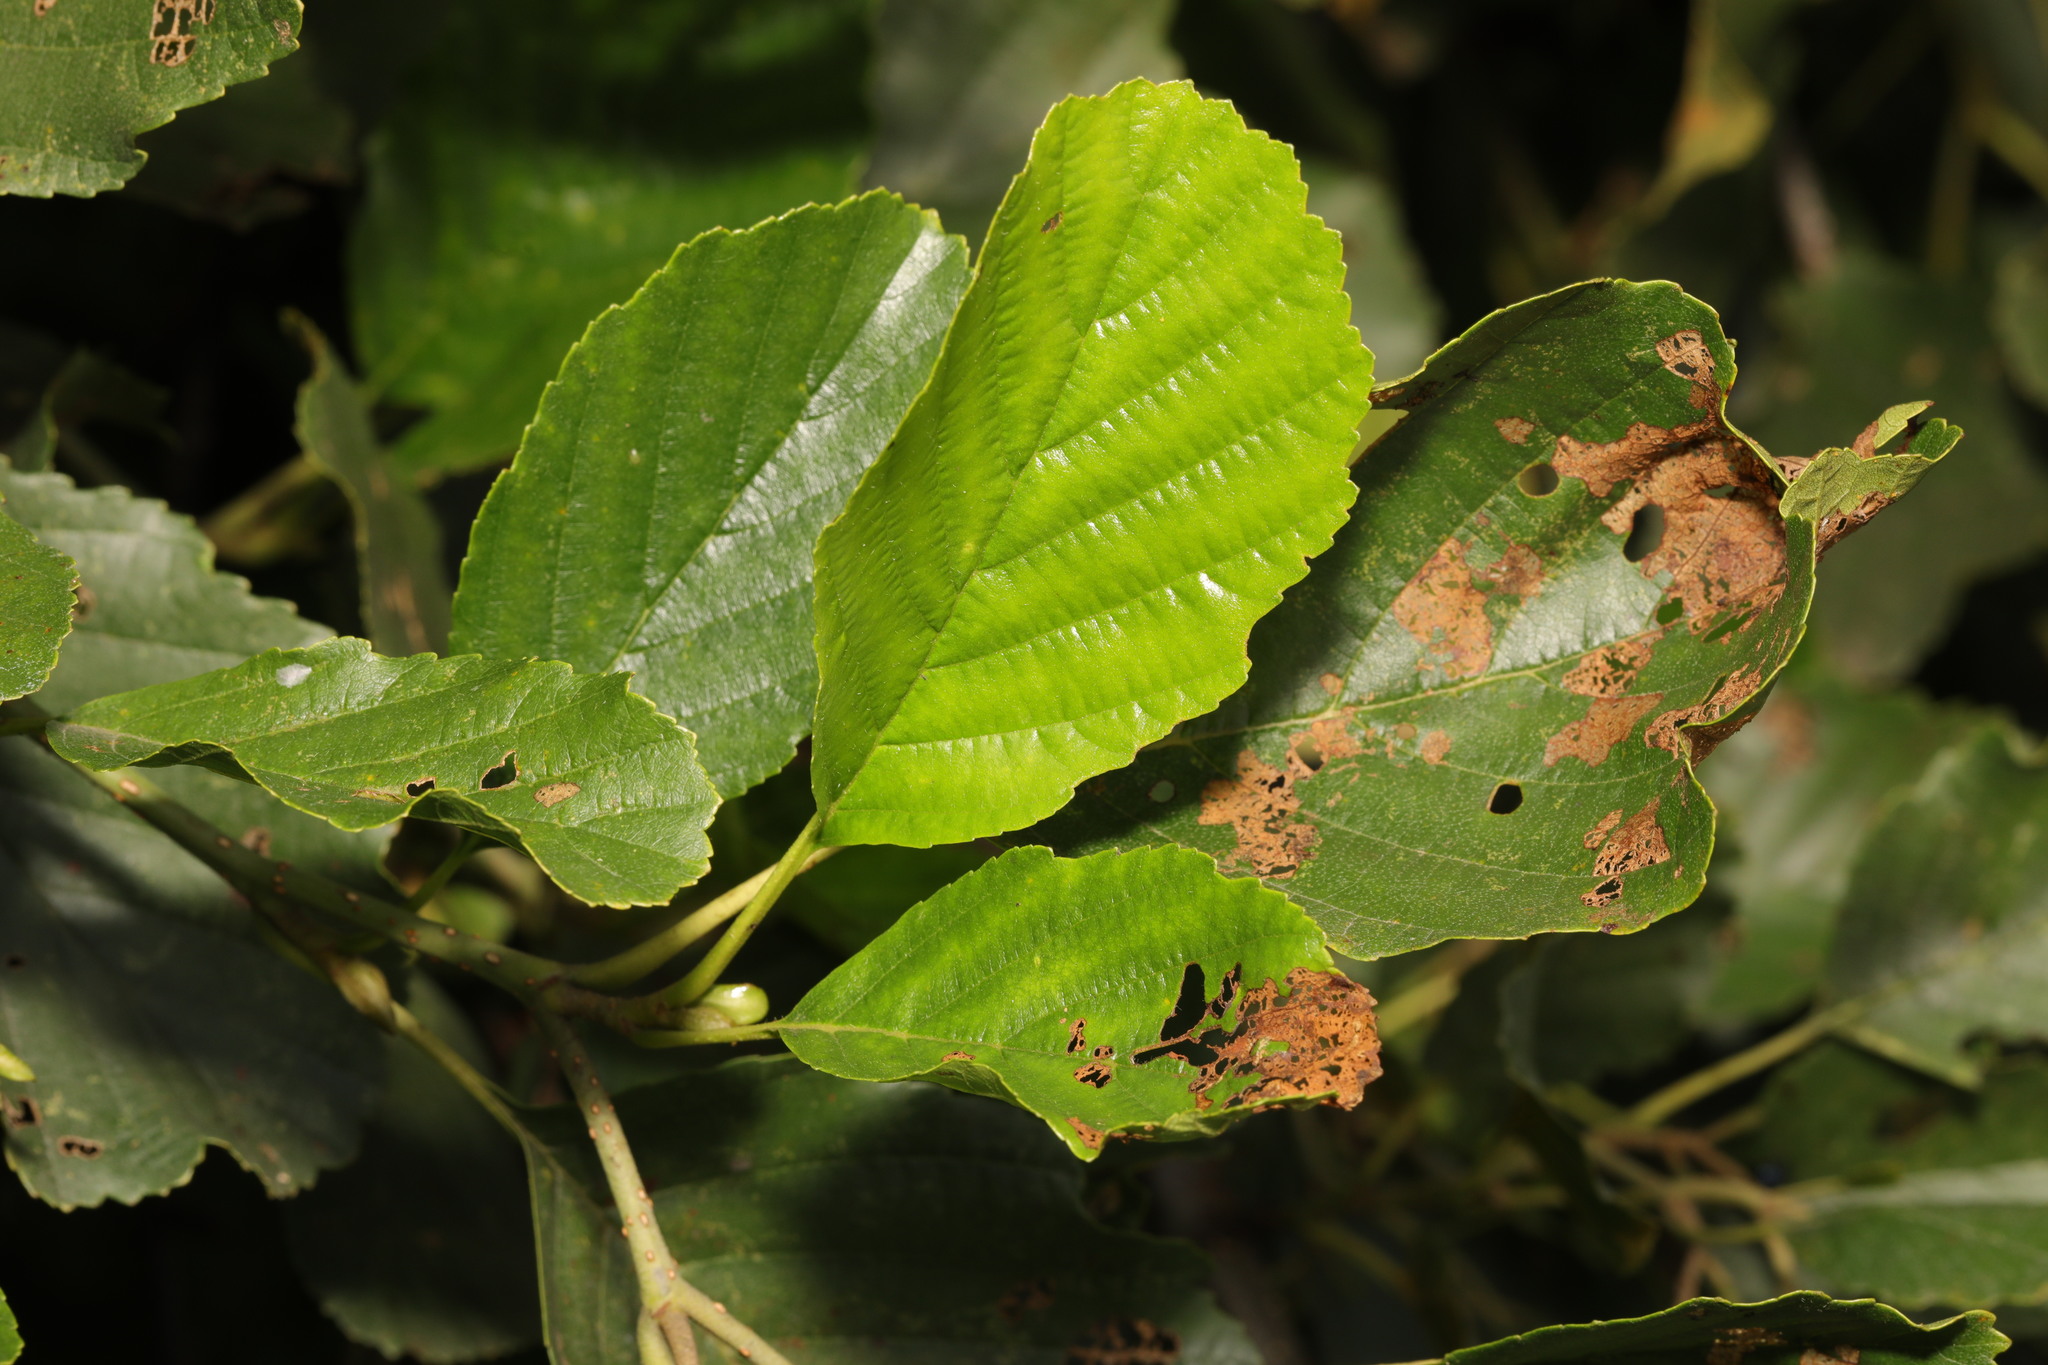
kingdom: Plantae
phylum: Tracheophyta
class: Magnoliopsida
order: Fagales
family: Betulaceae
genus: Alnus
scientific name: Alnus glutinosa
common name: Black alder
